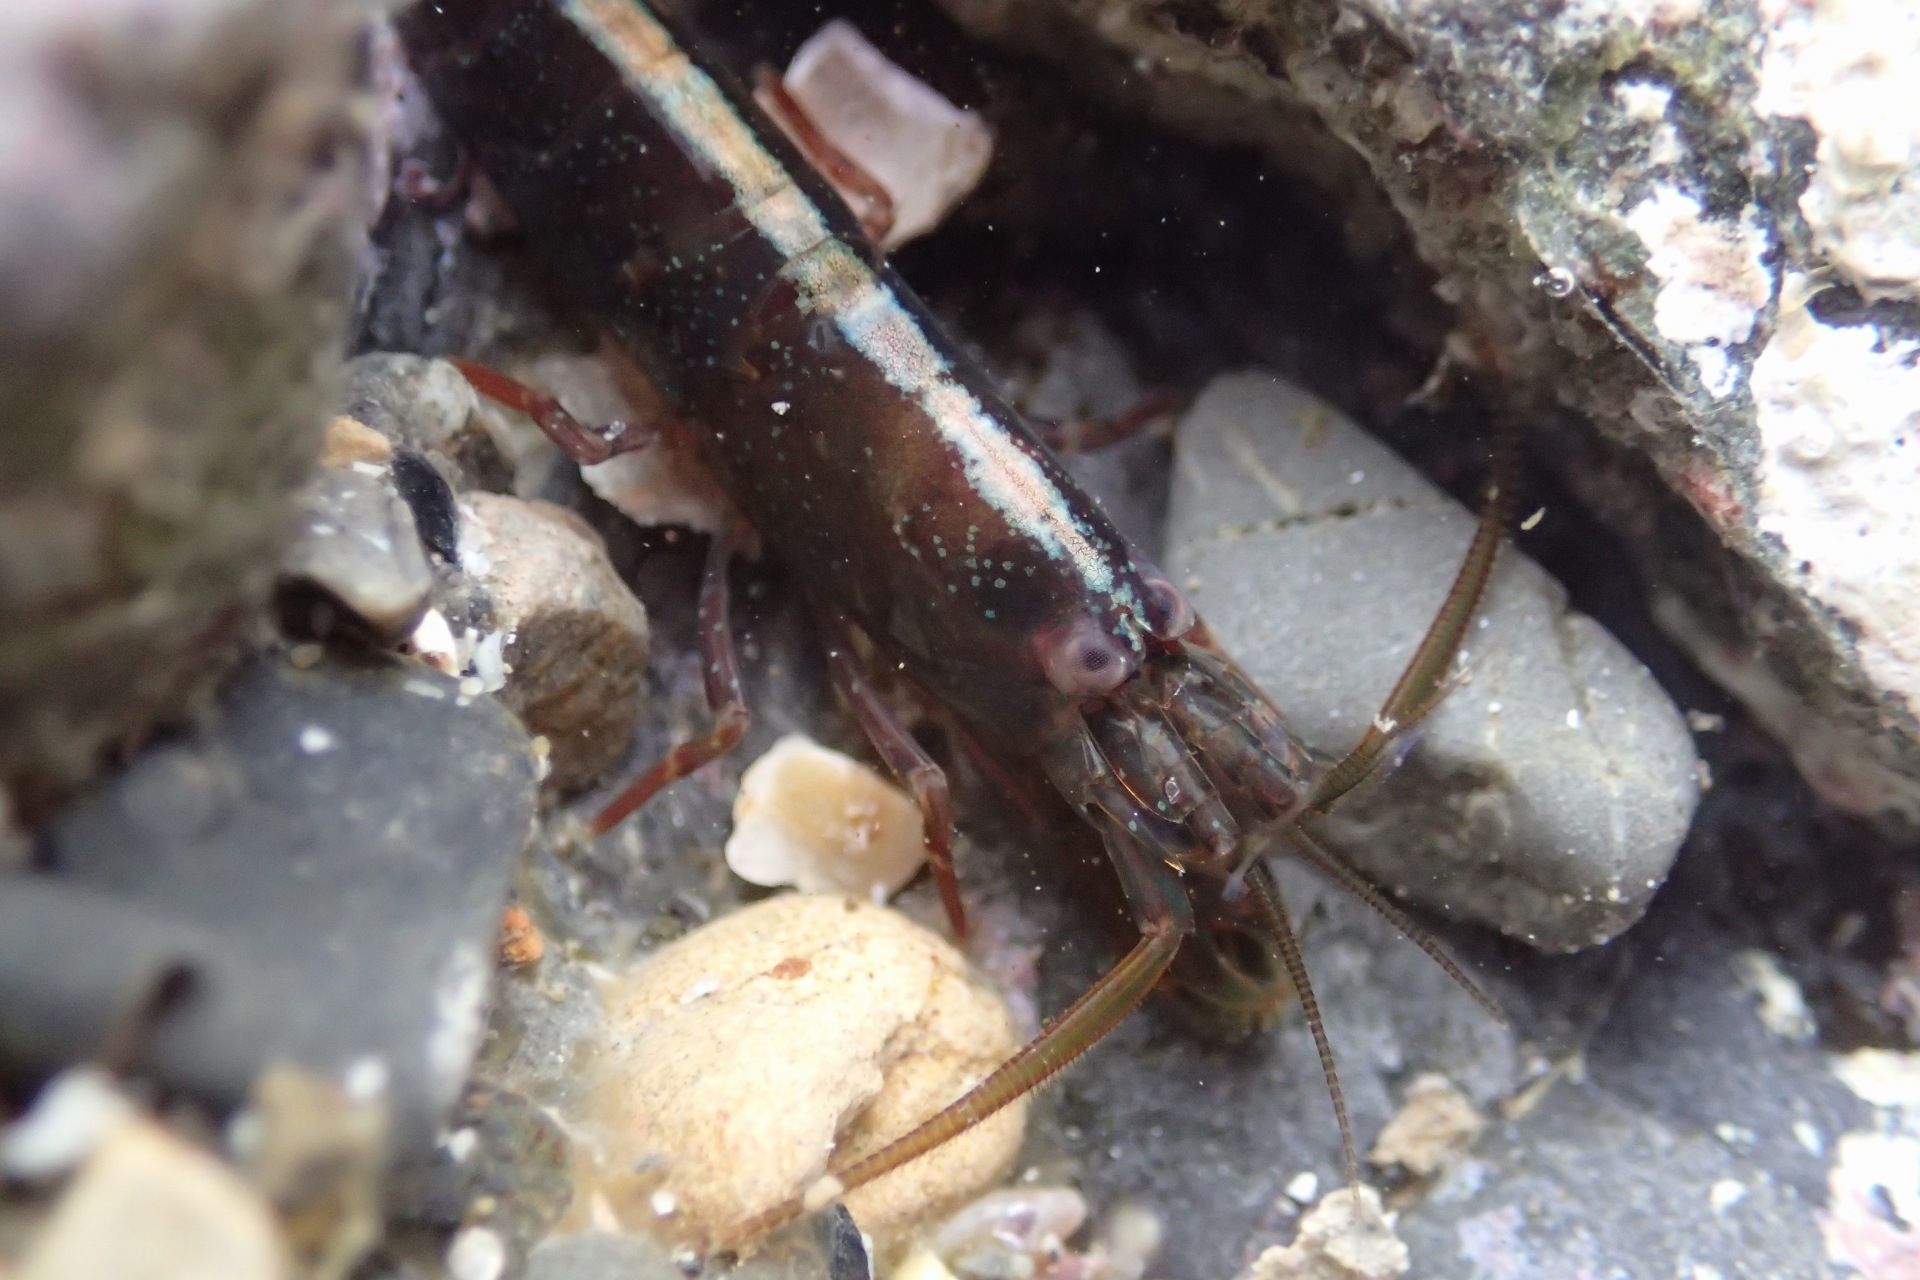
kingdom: Animalia
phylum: Arthropoda
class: Malacostraca
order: Decapoda
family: Alpheidae
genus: Betaeopsis
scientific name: Betaeopsis aequimanus
